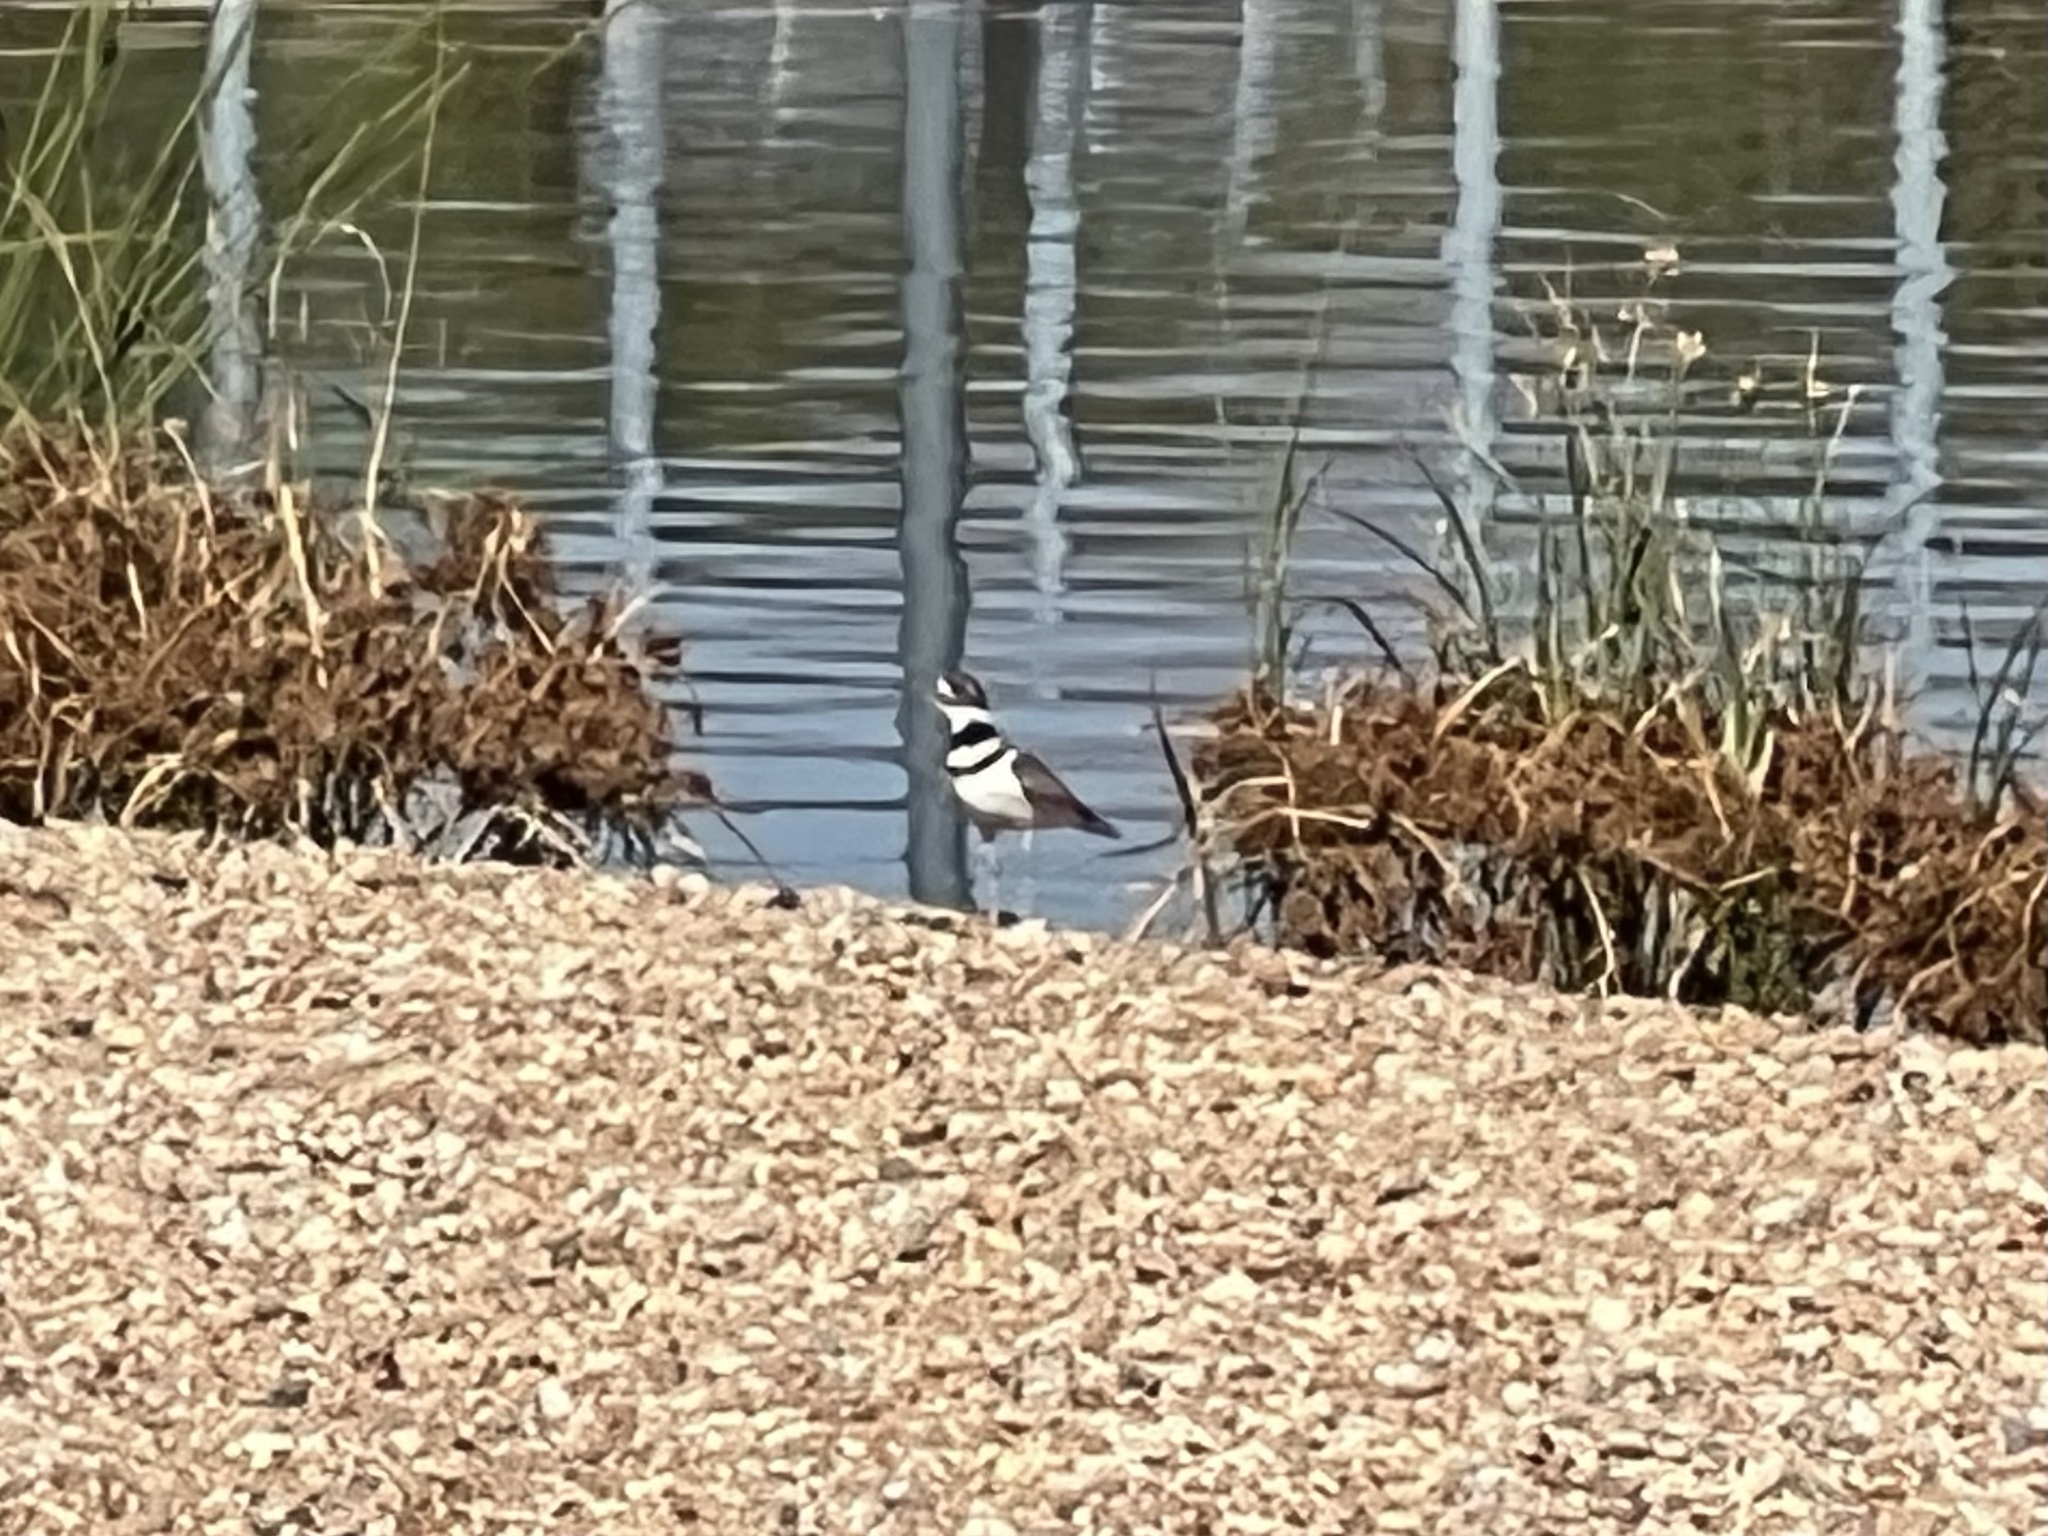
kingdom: Animalia
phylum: Chordata
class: Aves
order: Charadriiformes
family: Charadriidae
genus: Charadrius
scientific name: Charadrius vociferus
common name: Killdeer
